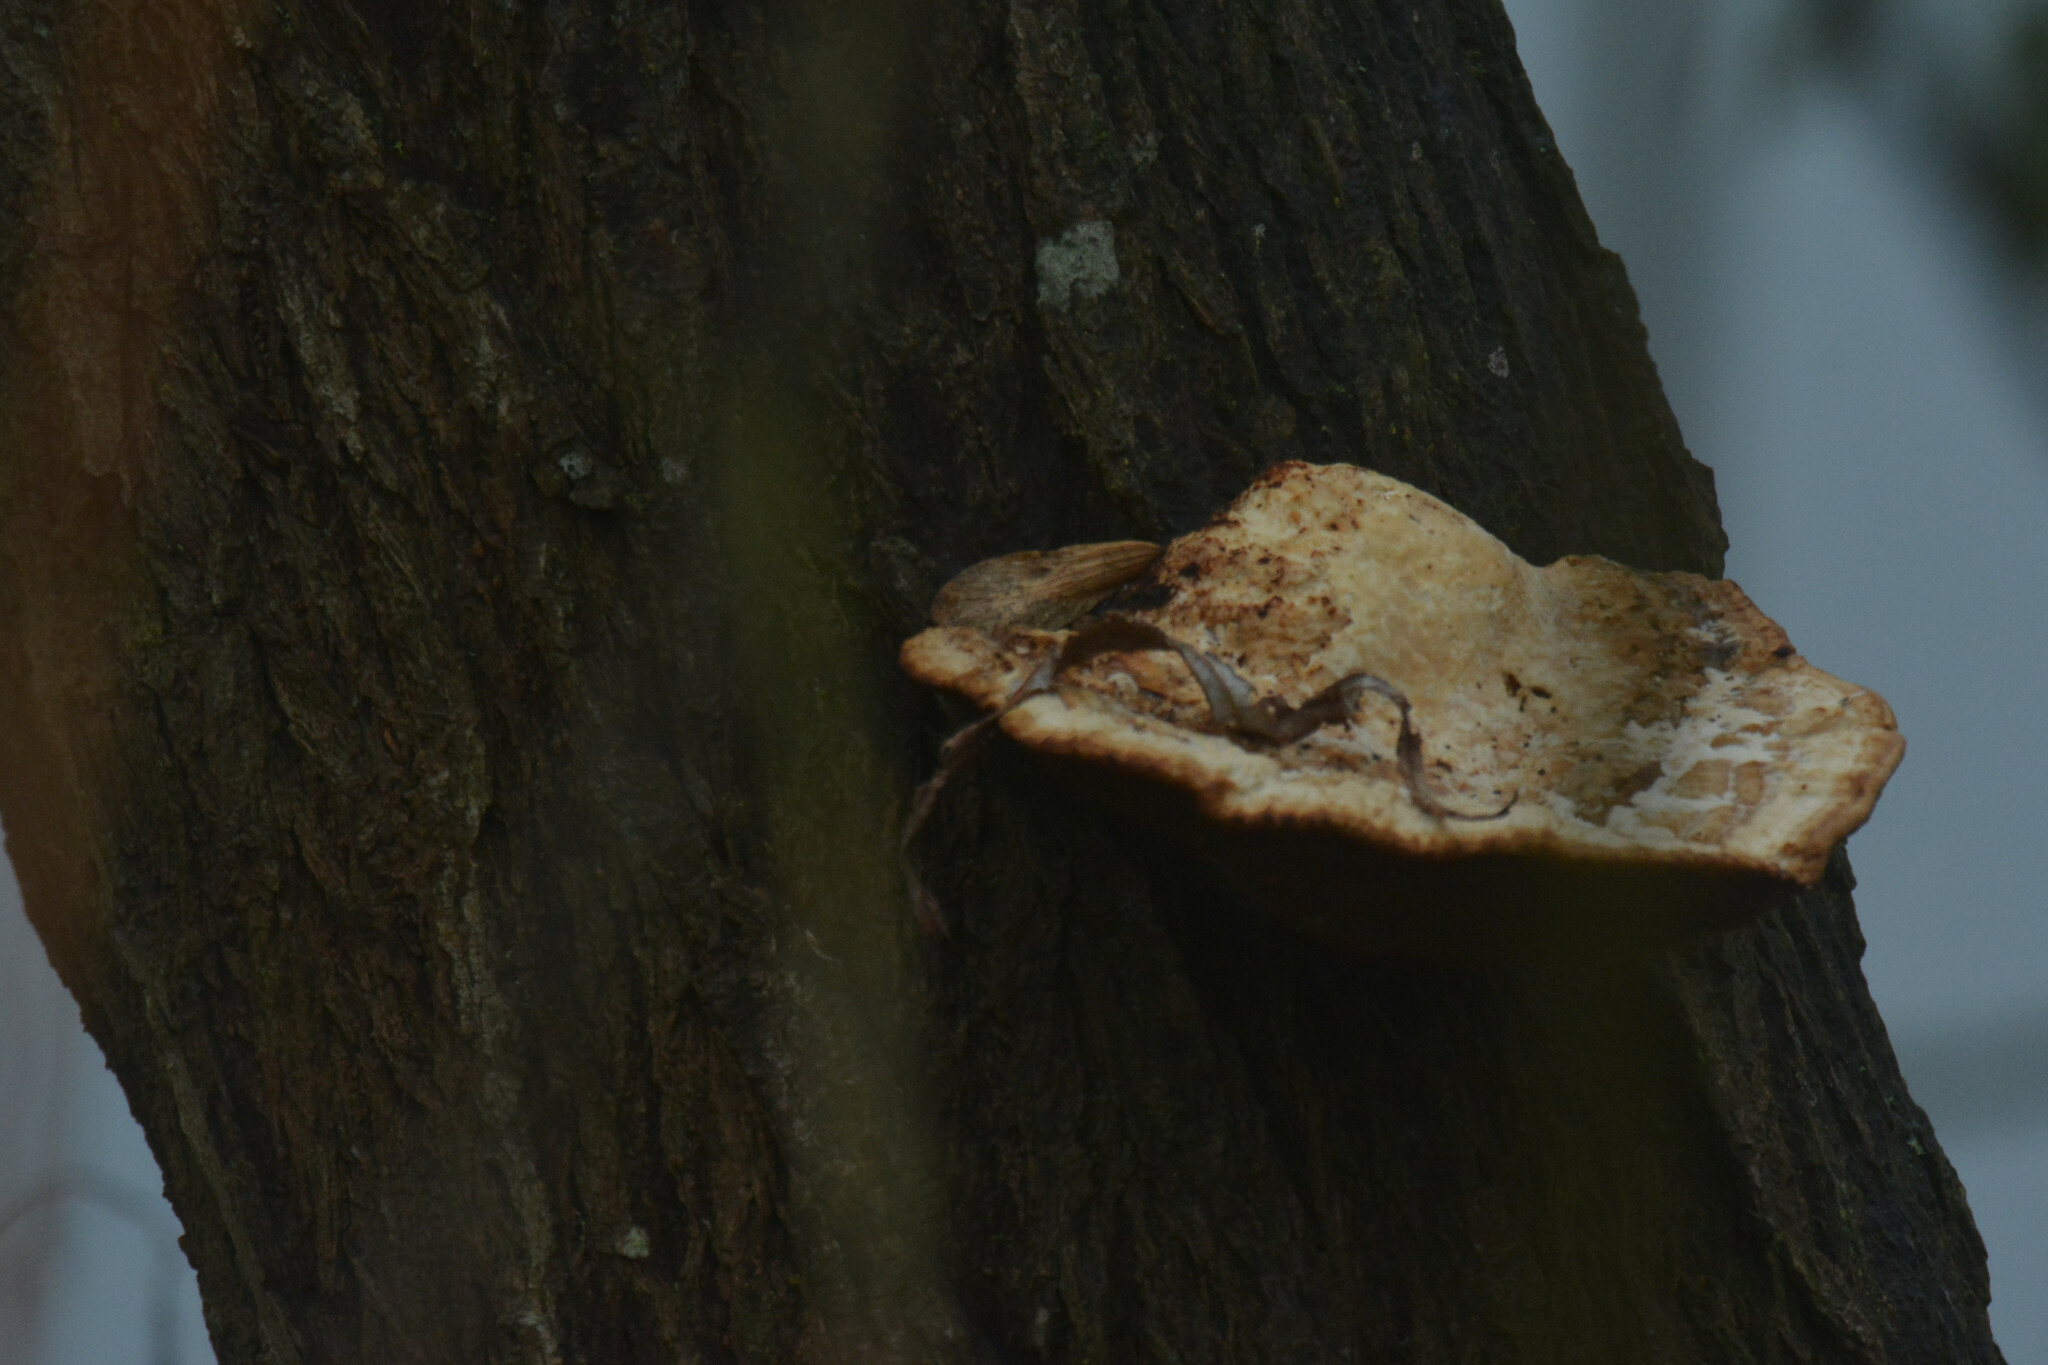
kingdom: Fungi
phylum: Basidiomycota
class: Agaricomycetes
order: Polyporales
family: Polyporaceae
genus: Daedaleopsis
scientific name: Daedaleopsis confragosa
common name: Blushing bracket
